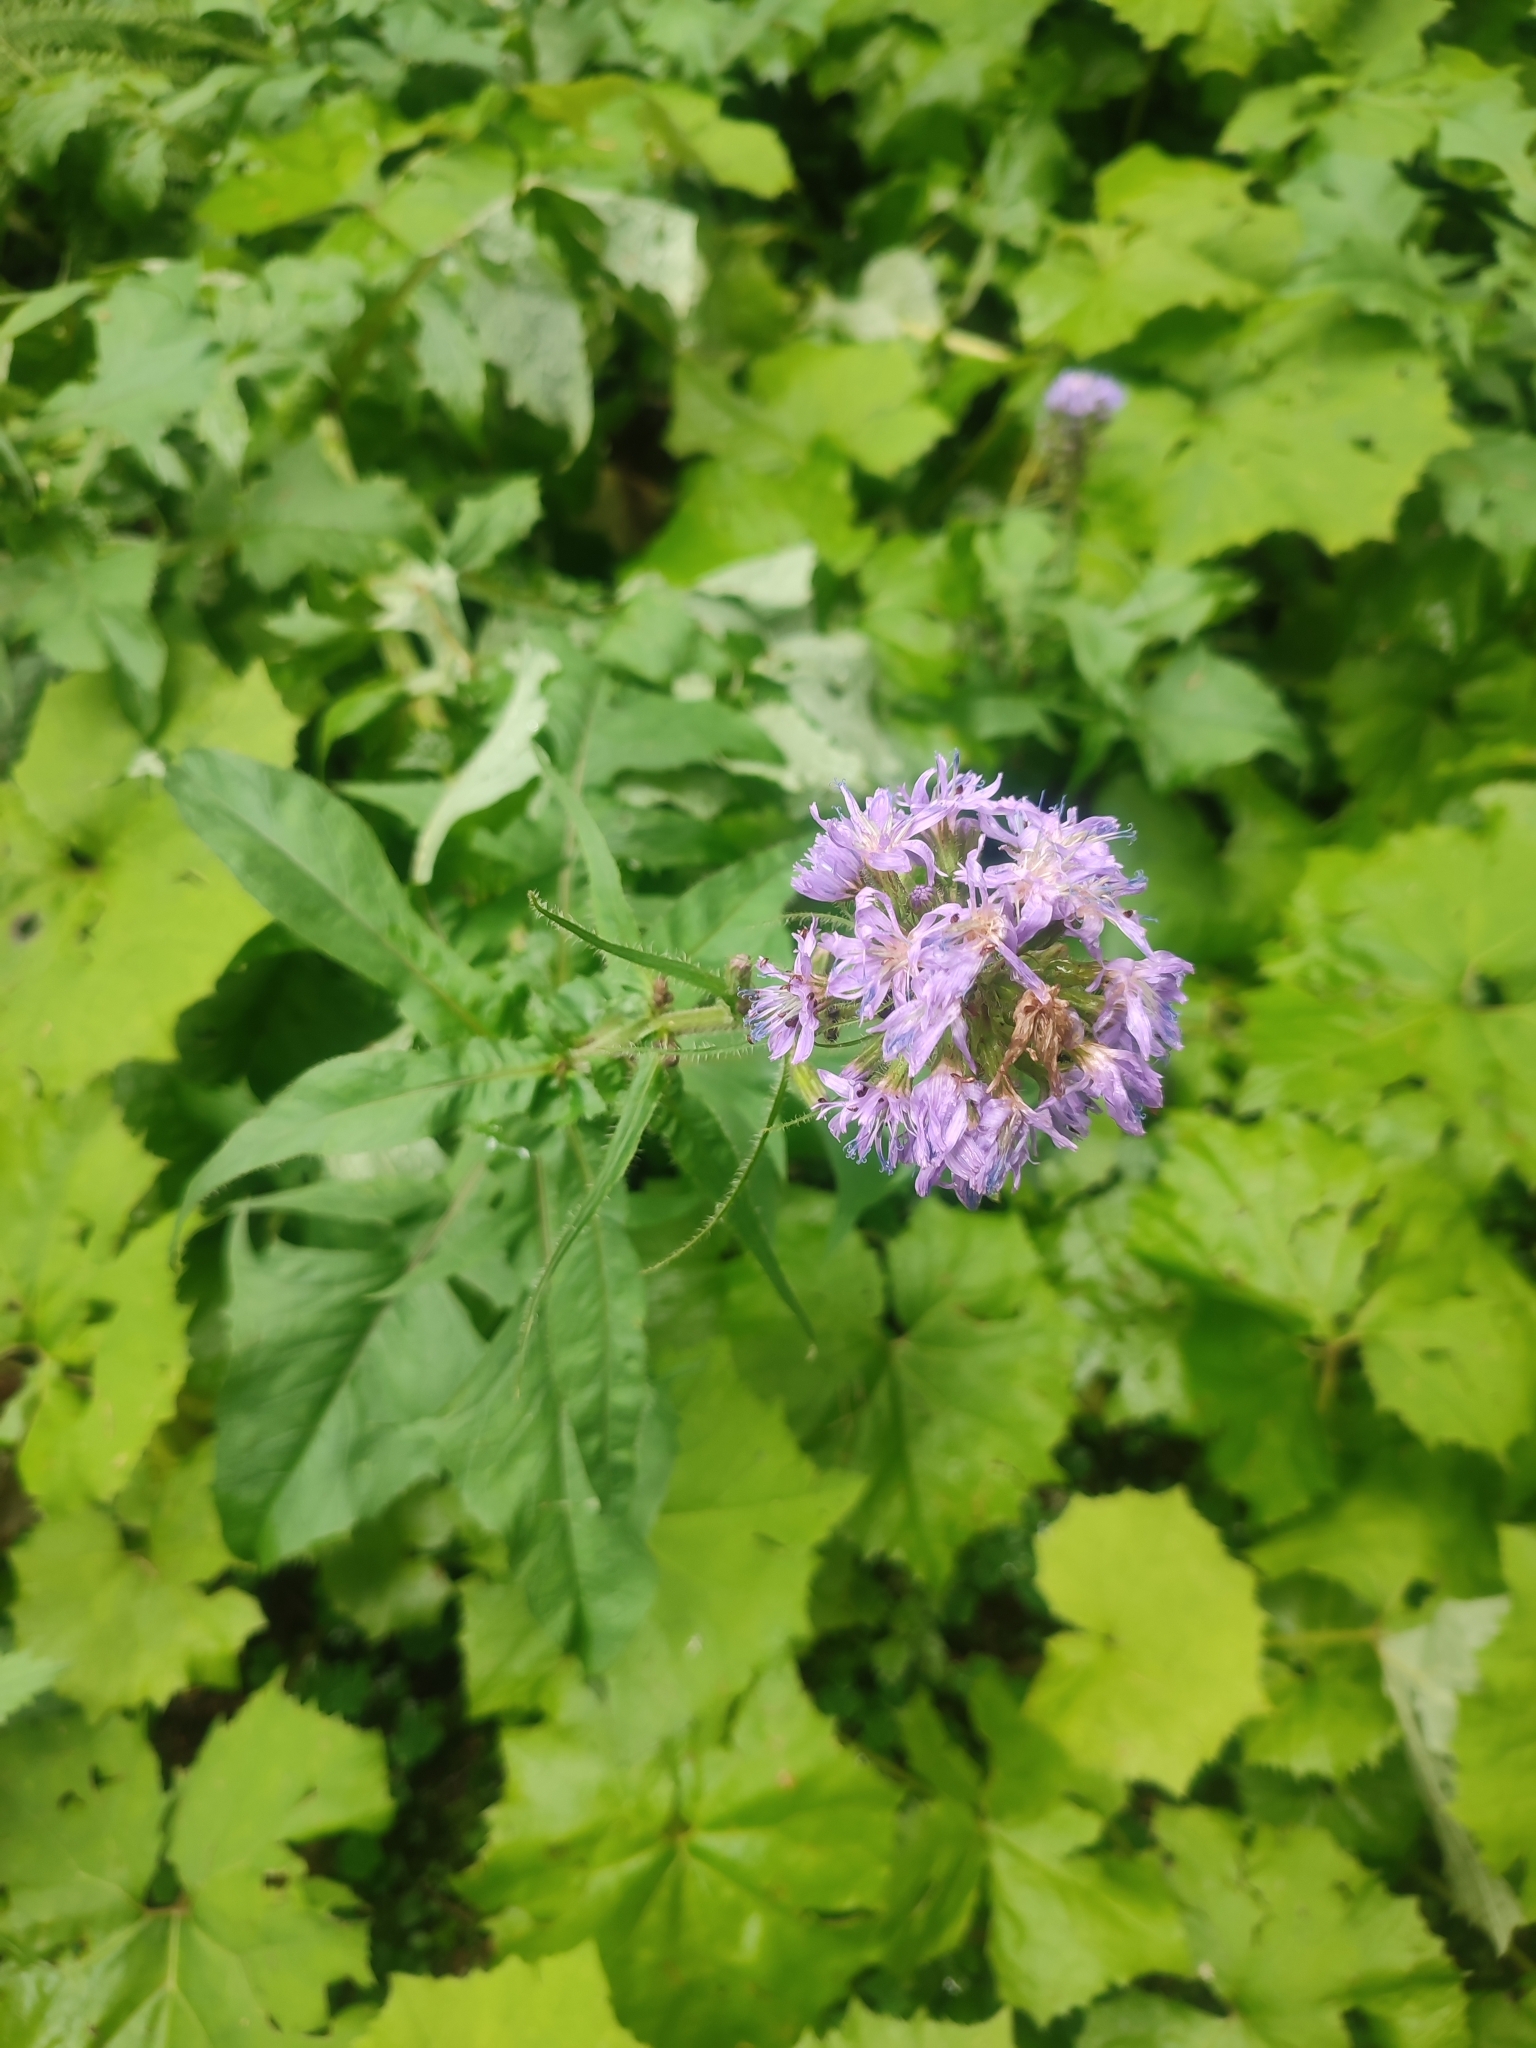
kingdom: Plantae
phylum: Tracheophyta
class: Magnoliopsida
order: Asterales
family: Asteraceae
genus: Cicerbita
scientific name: Cicerbita alpina
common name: Alpine blue-sow-thistle
